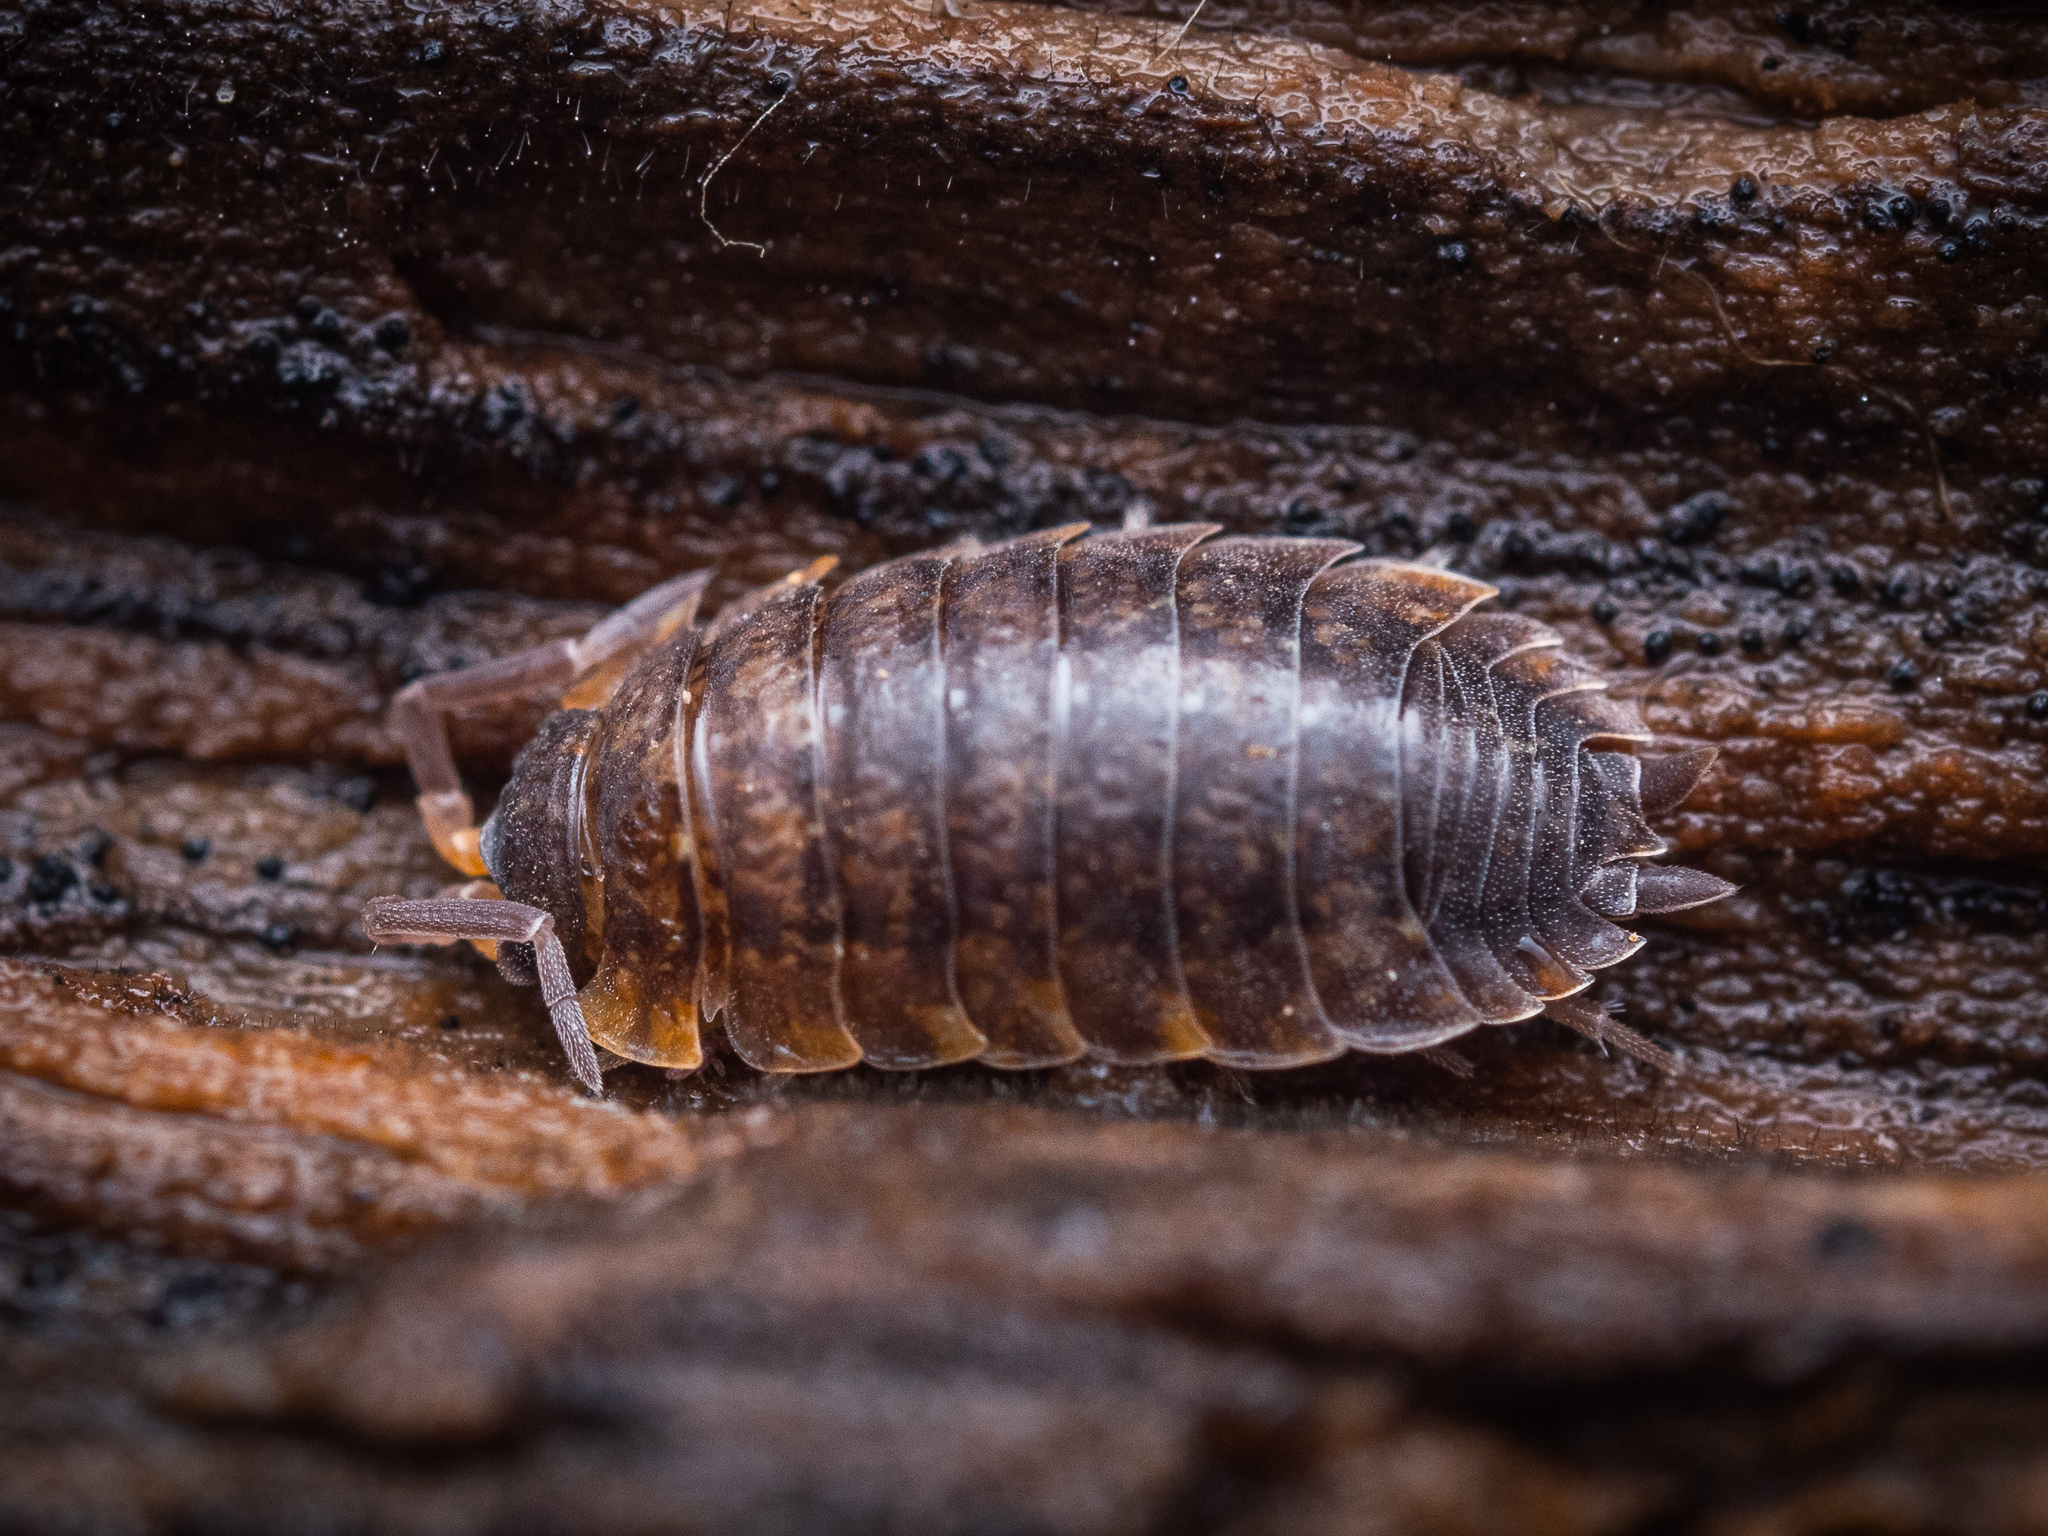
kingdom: Animalia
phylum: Arthropoda
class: Malacostraca
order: Isopoda
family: Porcellionidae
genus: Porcellio
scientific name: Porcellio scaber
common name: Common rough woodlouse
